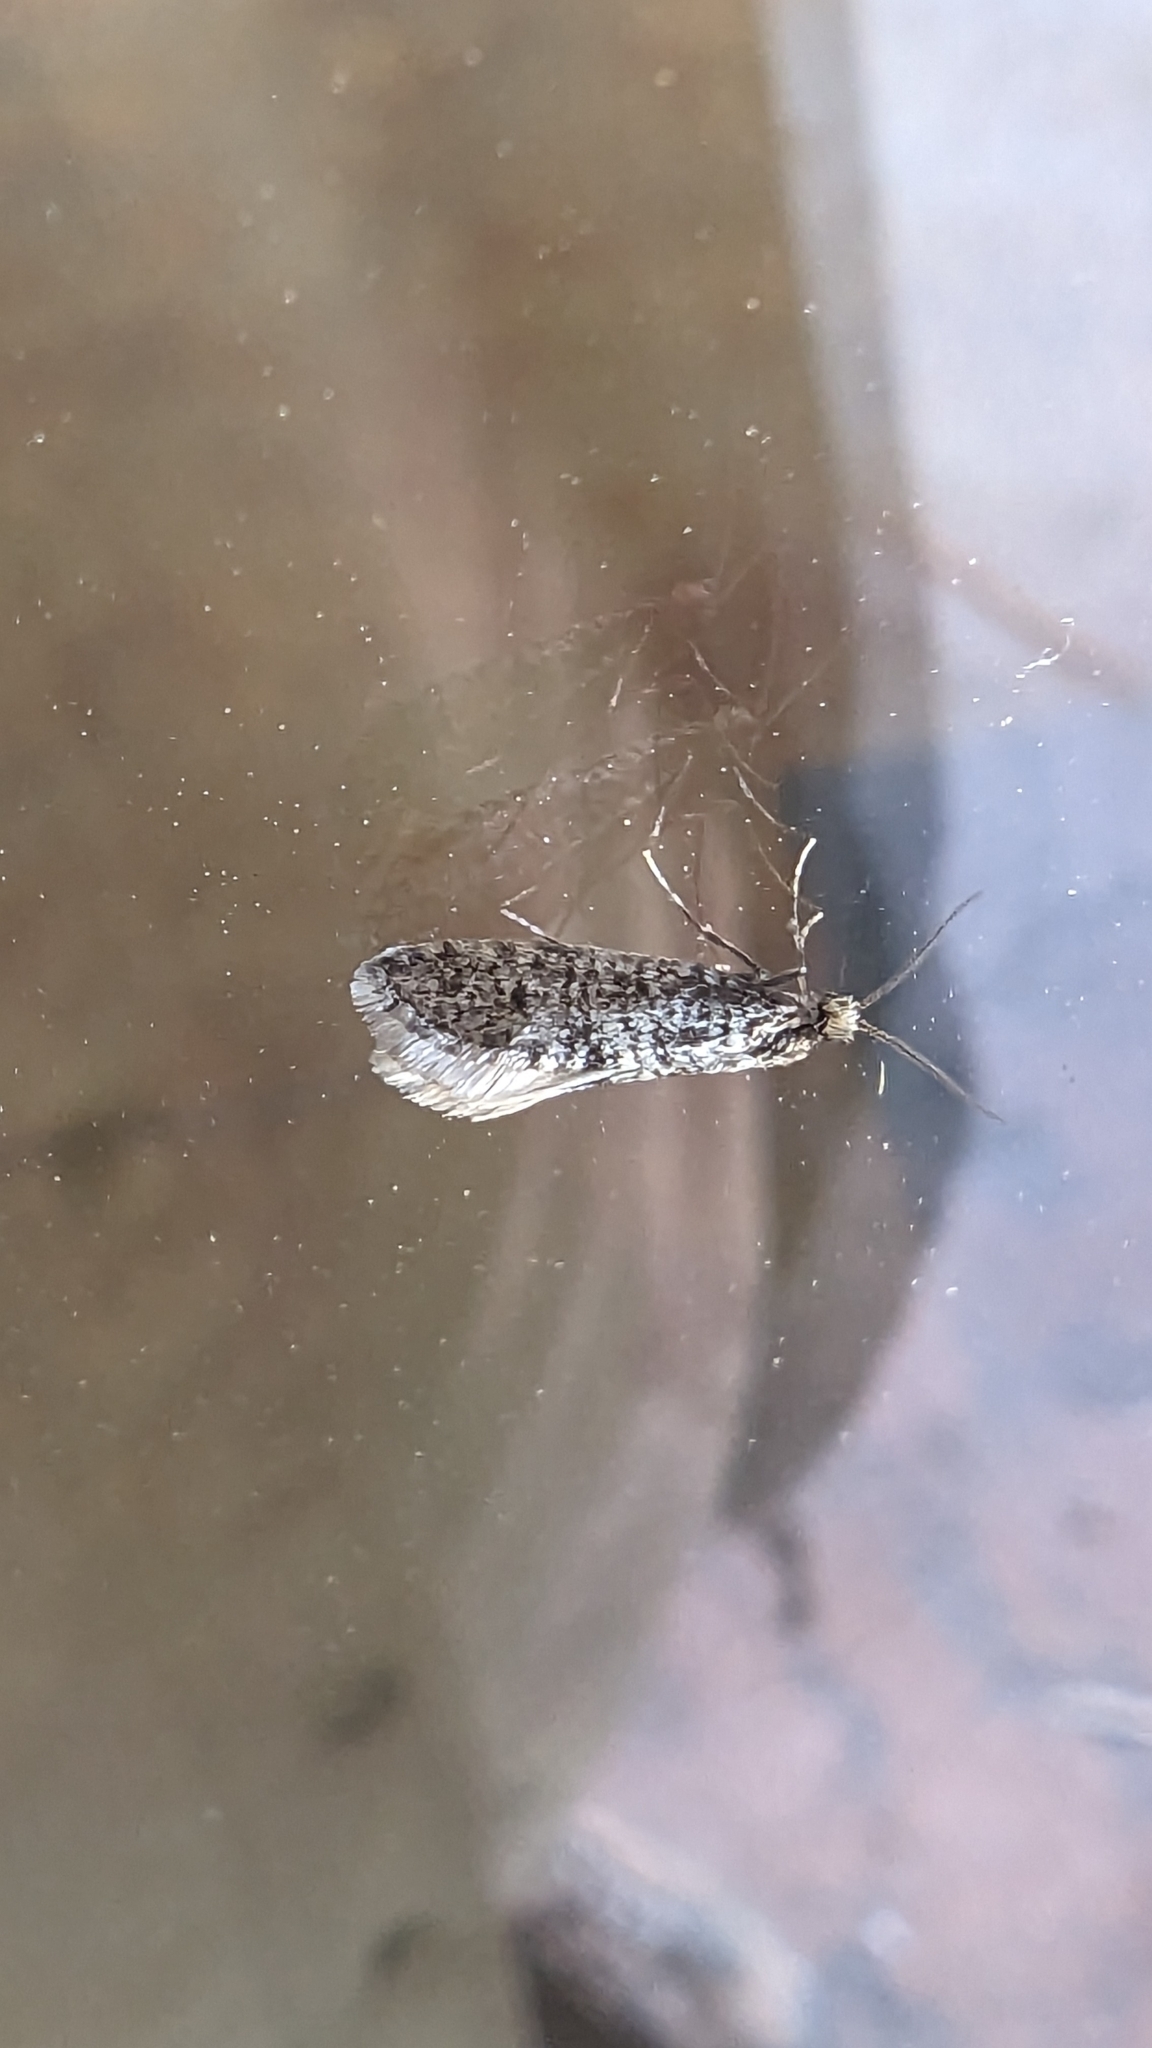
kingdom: Animalia
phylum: Arthropoda
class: Insecta
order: Lepidoptera
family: Psychidae
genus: Dahlica
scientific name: Dahlica walshella
